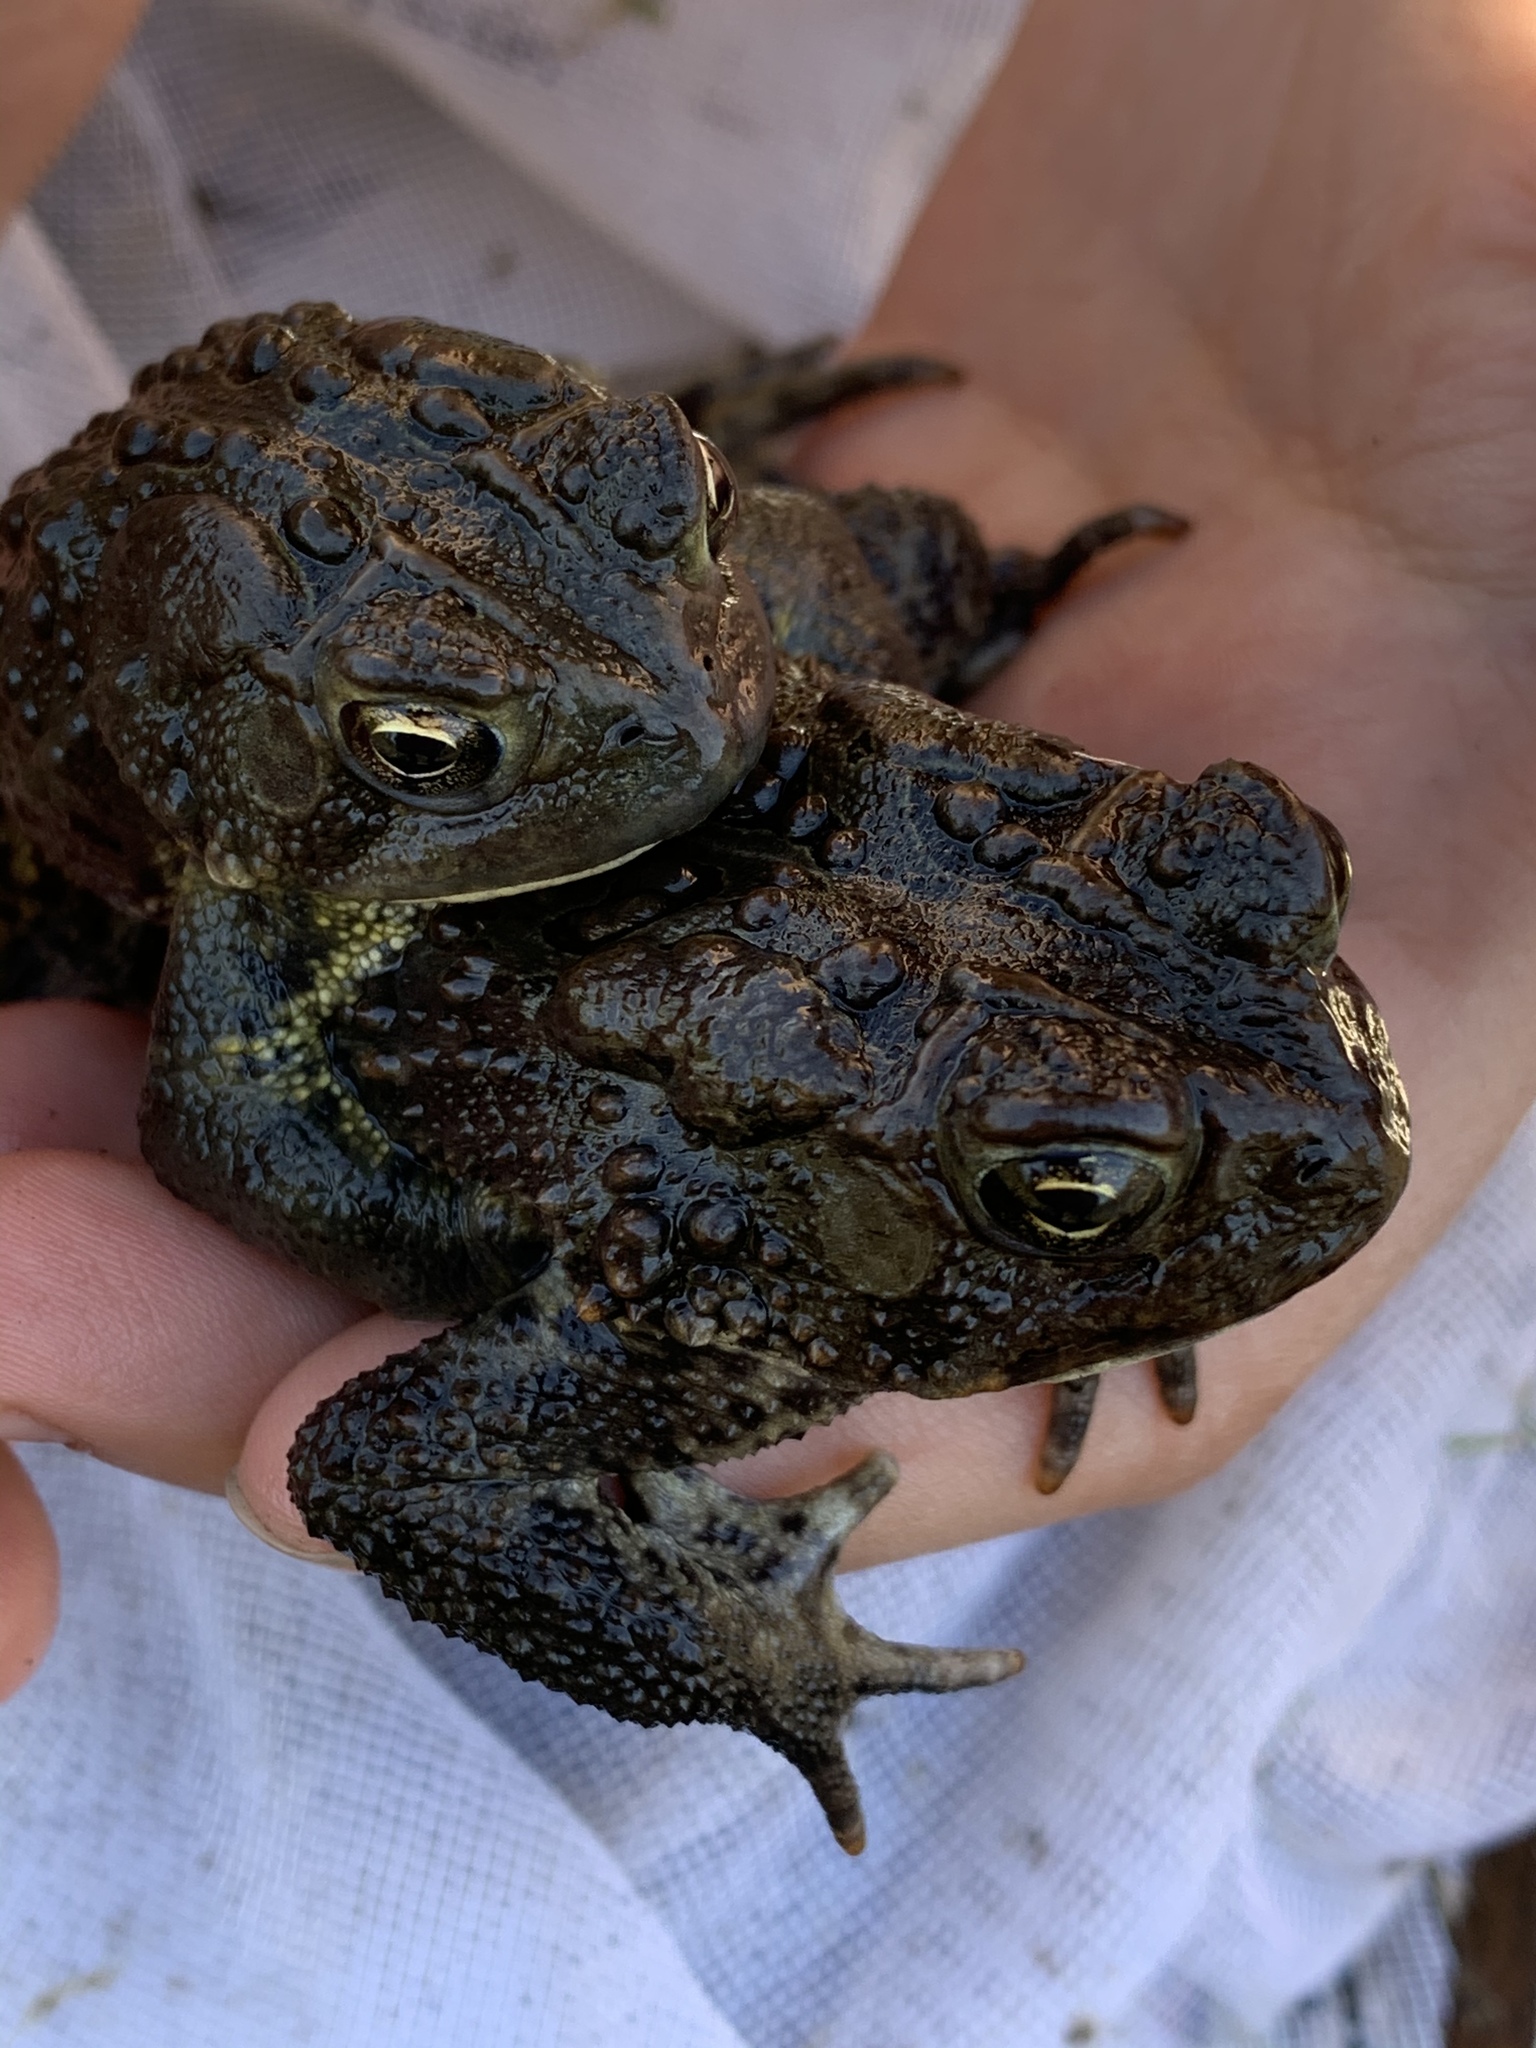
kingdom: Animalia
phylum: Chordata
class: Amphibia
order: Anura
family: Bufonidae
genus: Anaxyrus
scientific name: Anaxyrus americanus
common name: American toad
